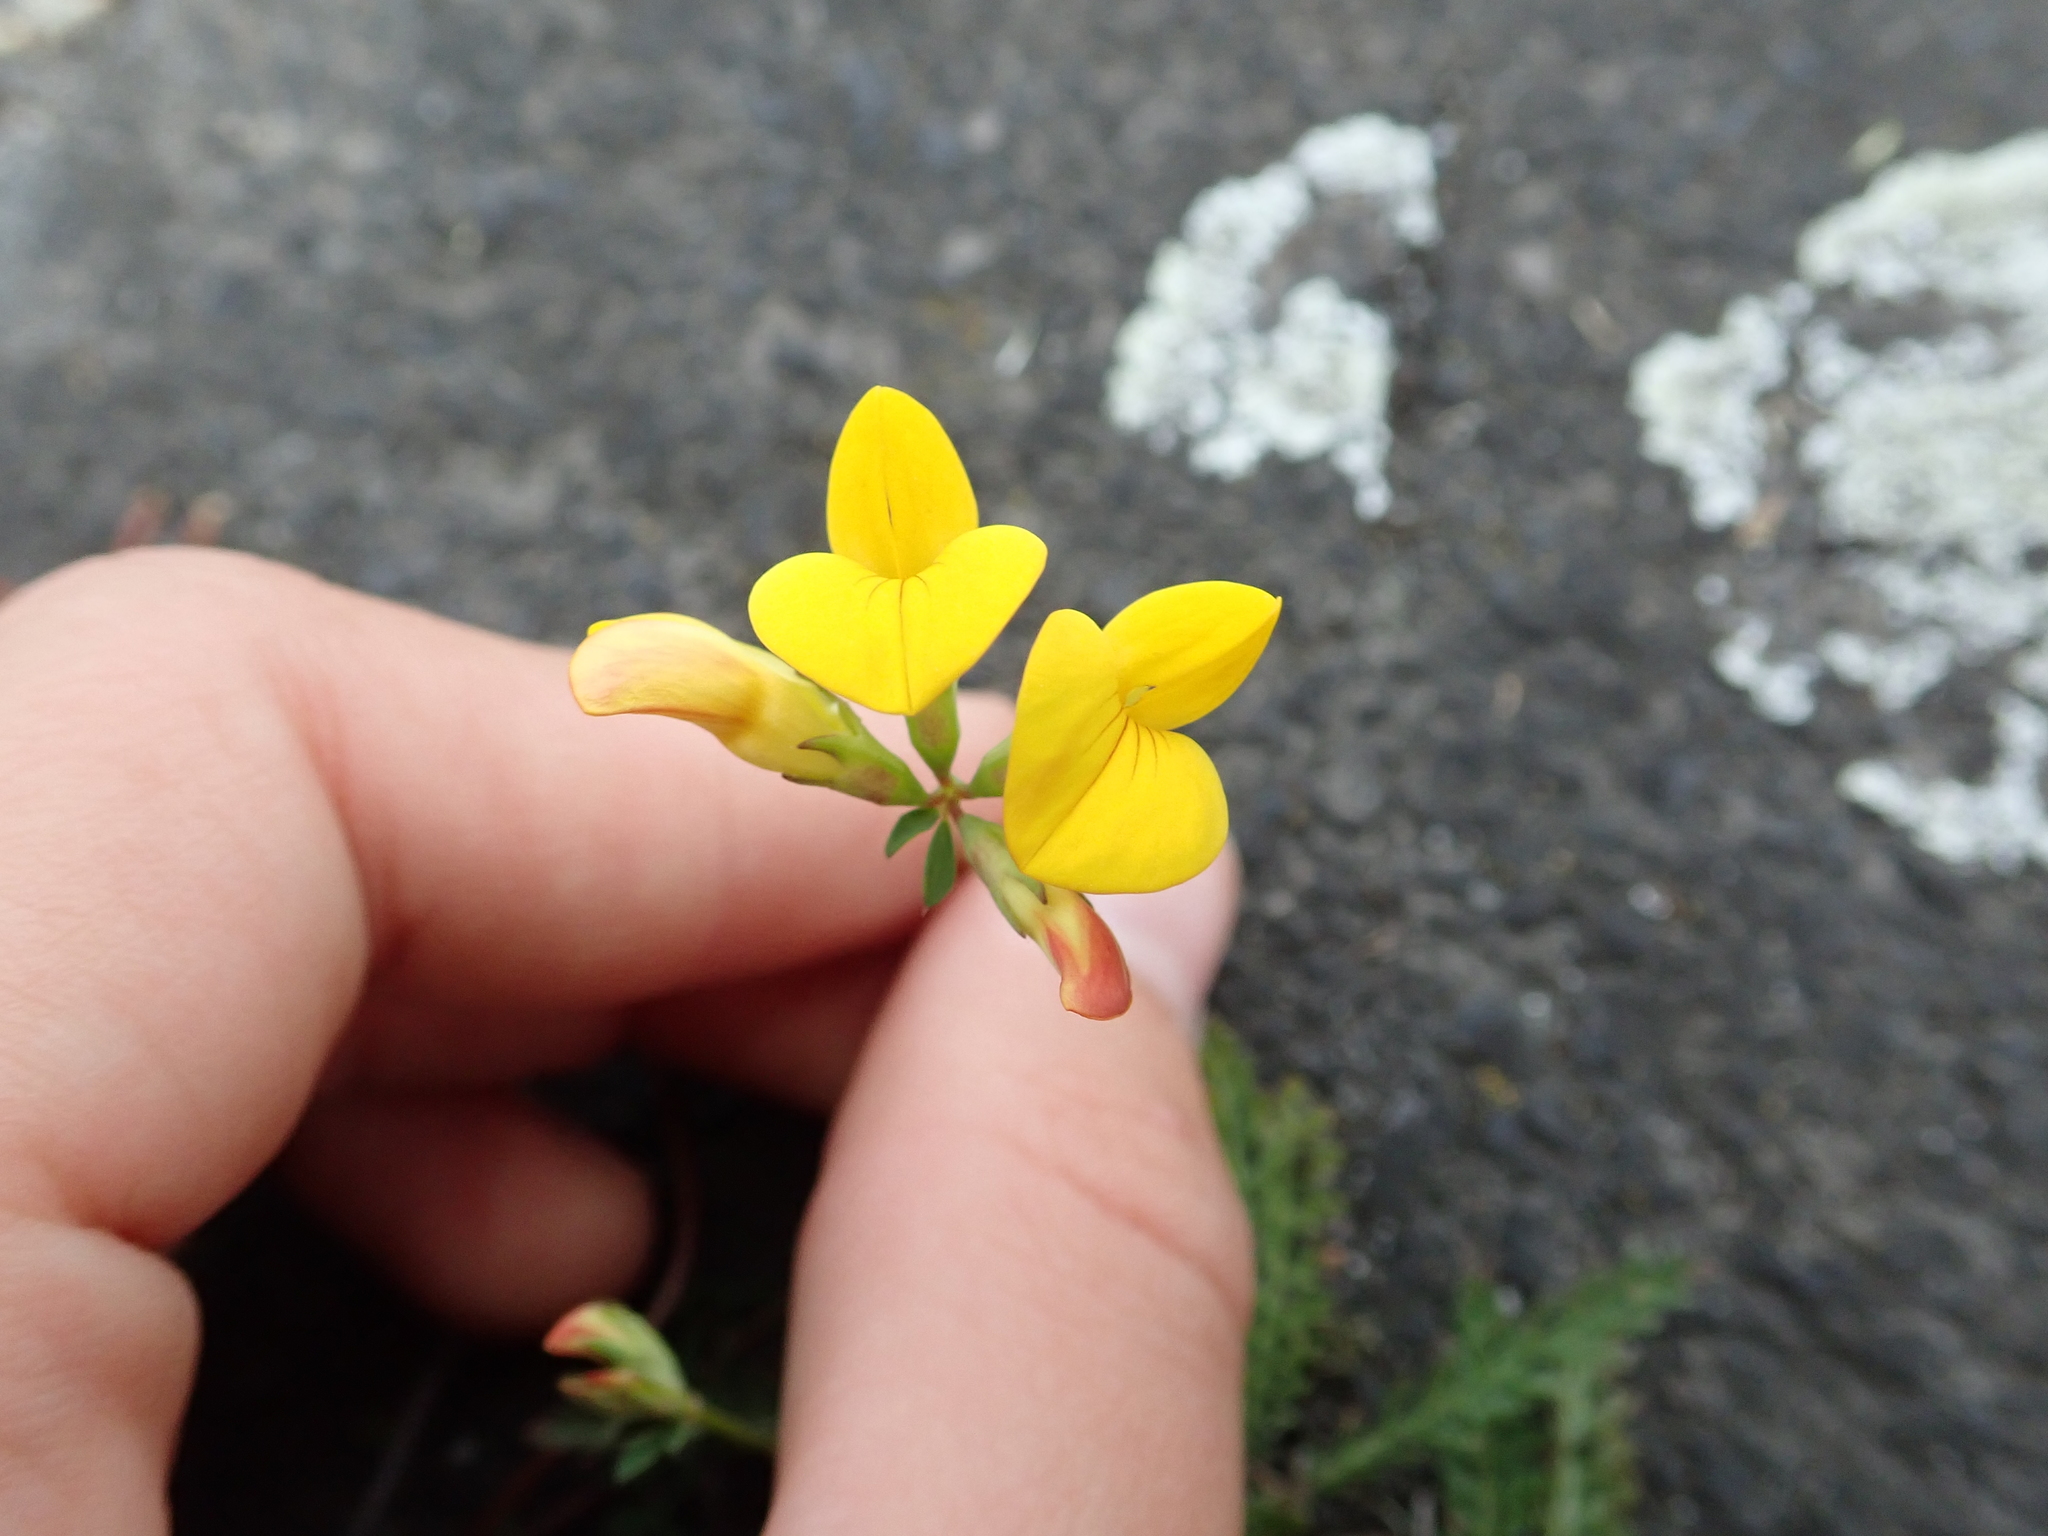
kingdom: Plantae
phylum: Tracheophyta
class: Magnoliopsida
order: Fabales
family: Fabaceae
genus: Lotus
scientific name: Lotus corniculatus
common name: Common bird's-foot-trefoil
